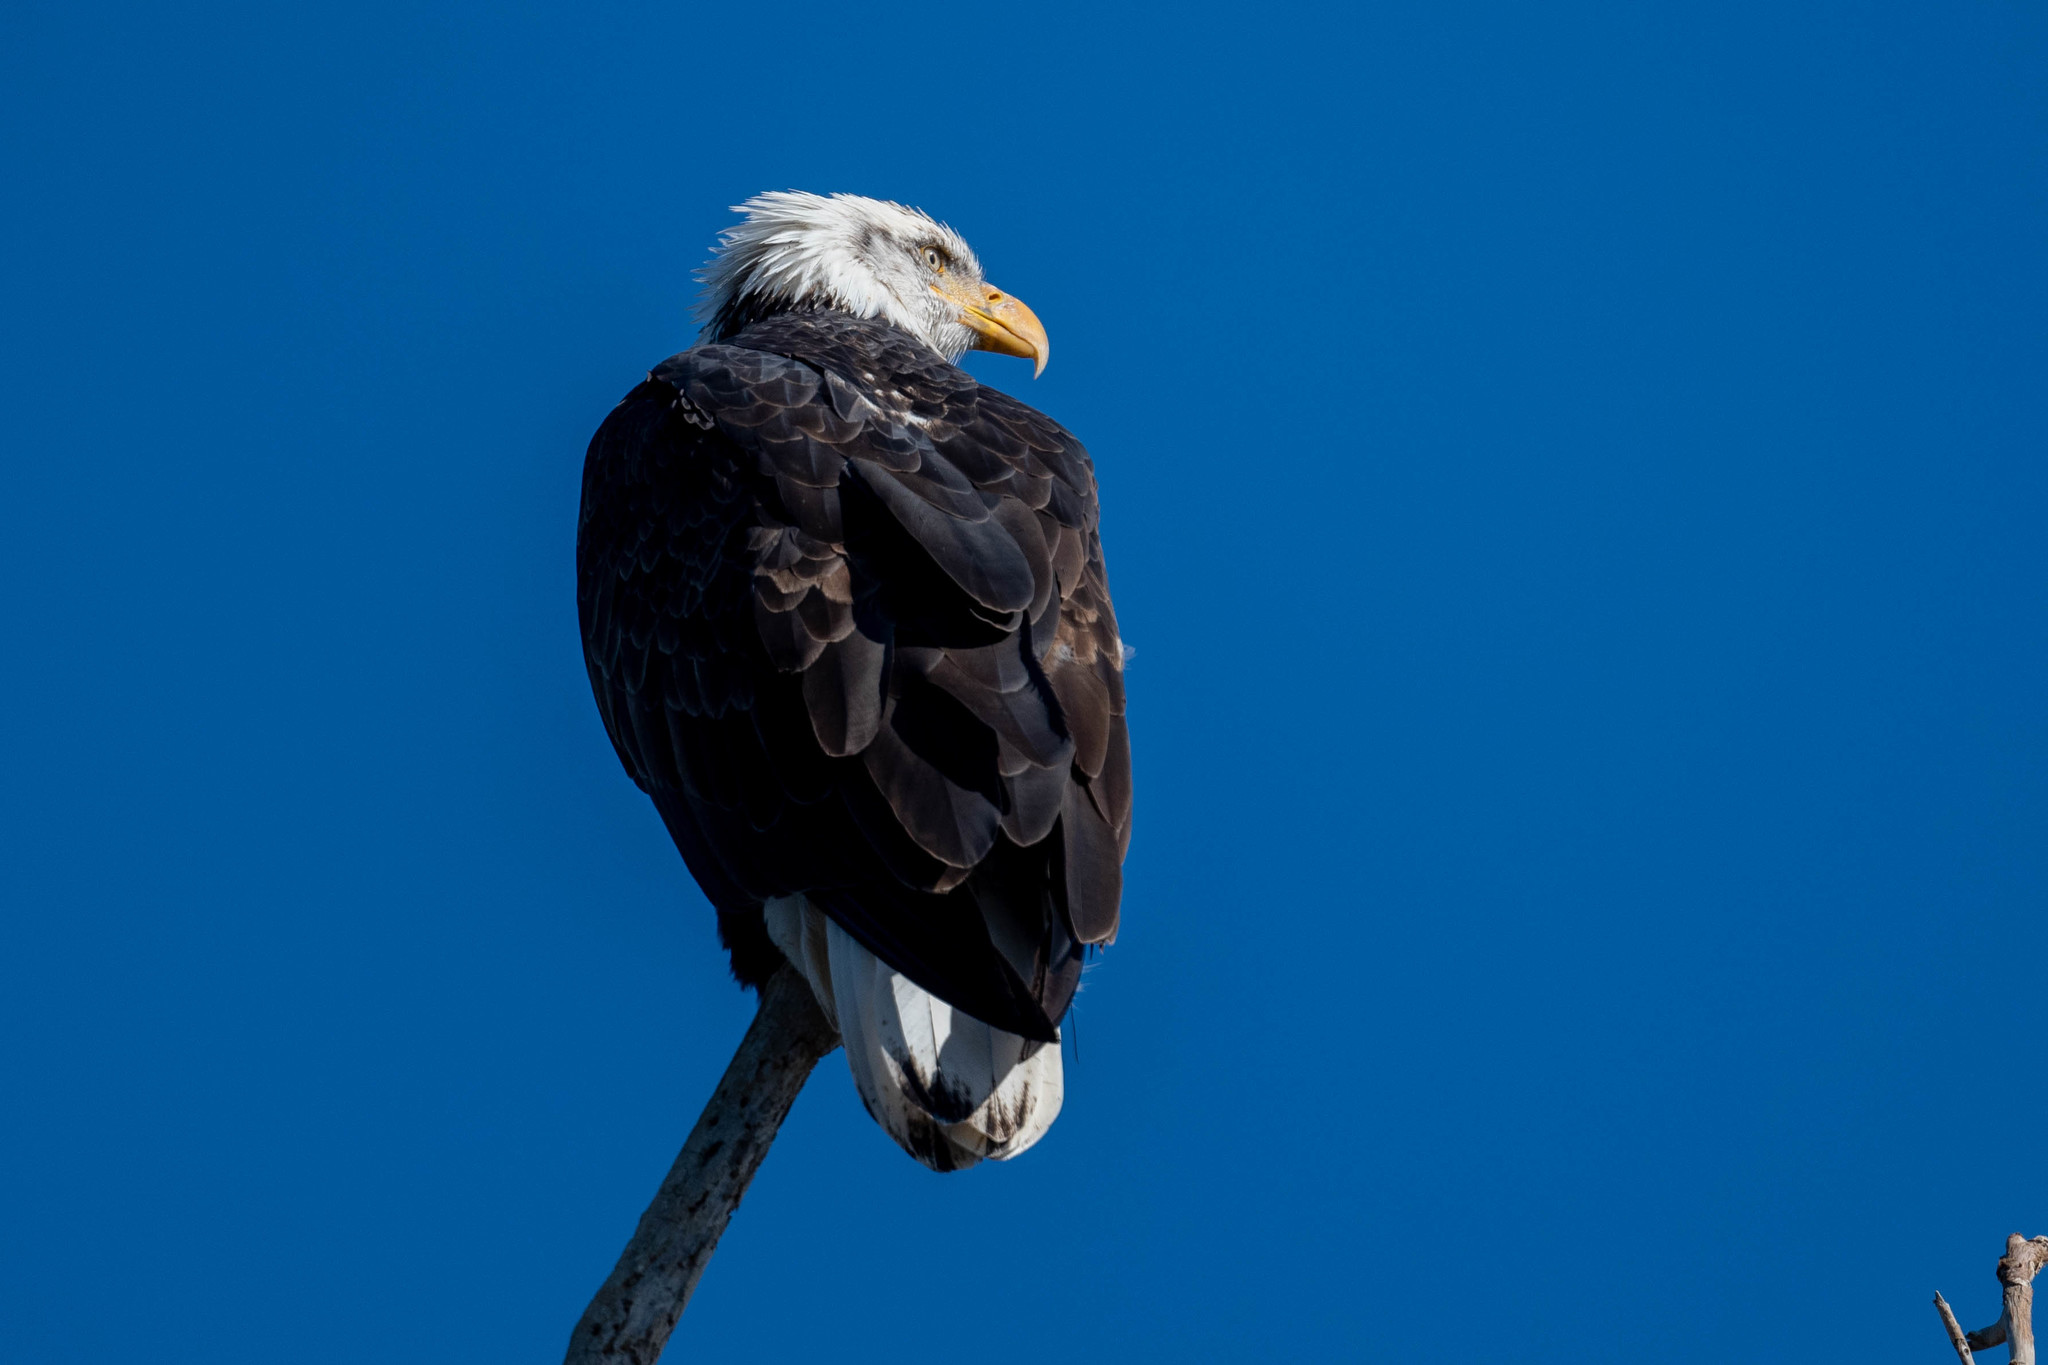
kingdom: Animalia
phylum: Chordata
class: Aves
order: Accipitriformes
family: Accipitridae
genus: Haliaeetus
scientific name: Haliaeetus leucocephalus
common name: Bald eagle
